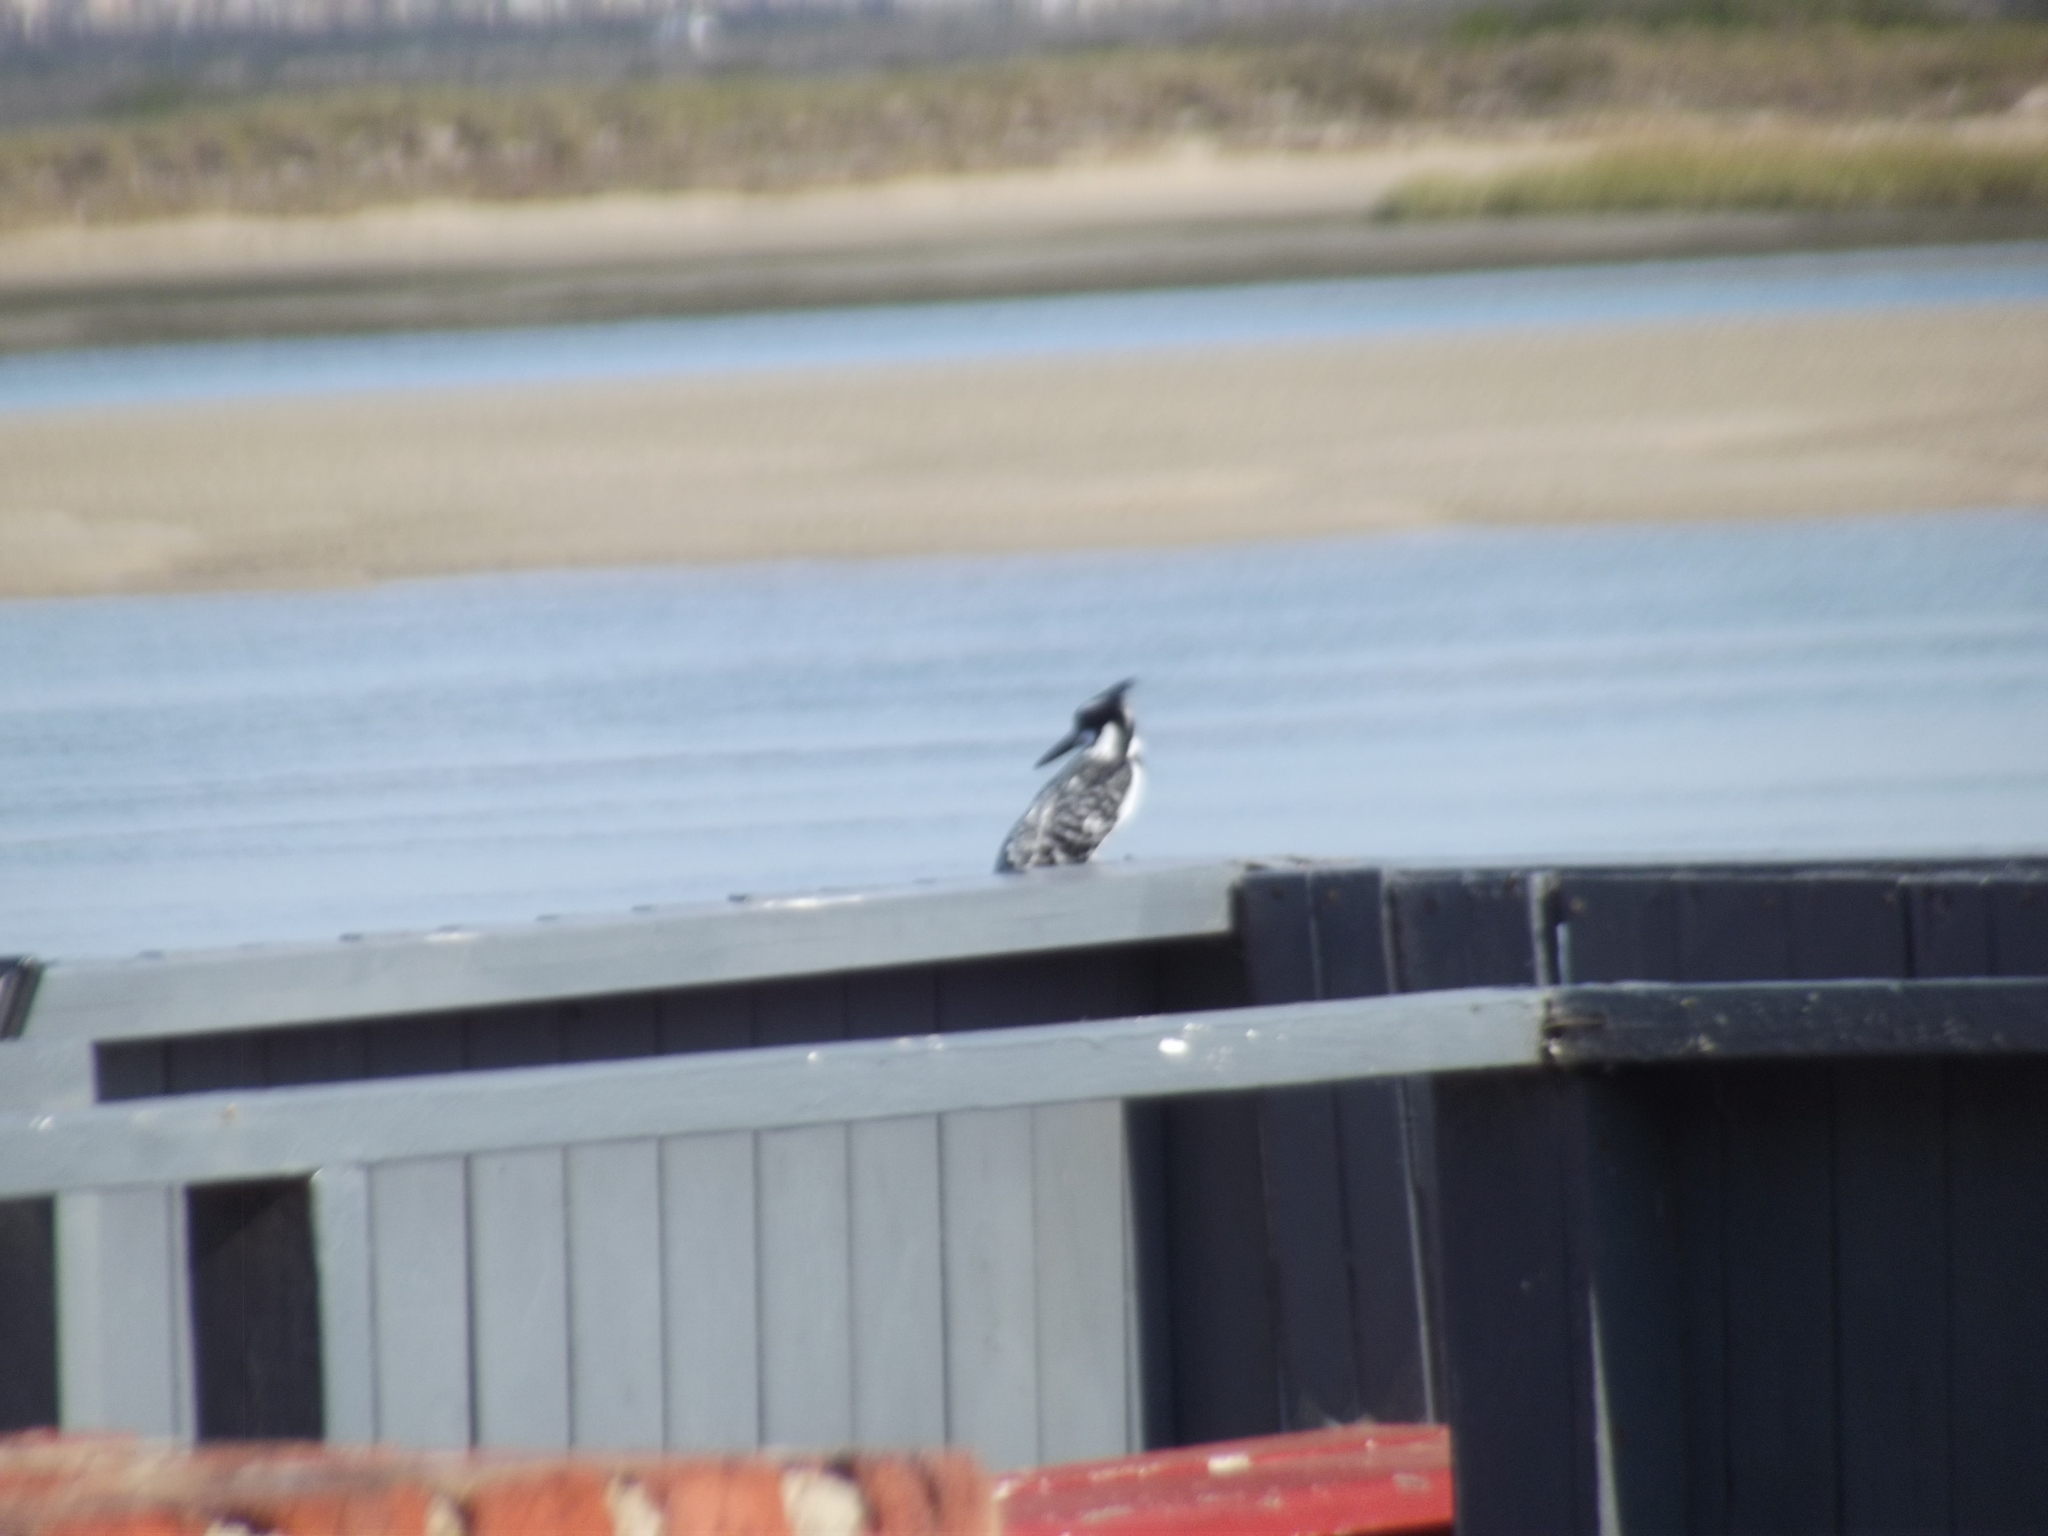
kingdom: Animalia
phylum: Chordata
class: Aves
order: Coraciiformes
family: Alcedinidae
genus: Ceryle
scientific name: Ceryle rudis
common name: Pied kingfisher
